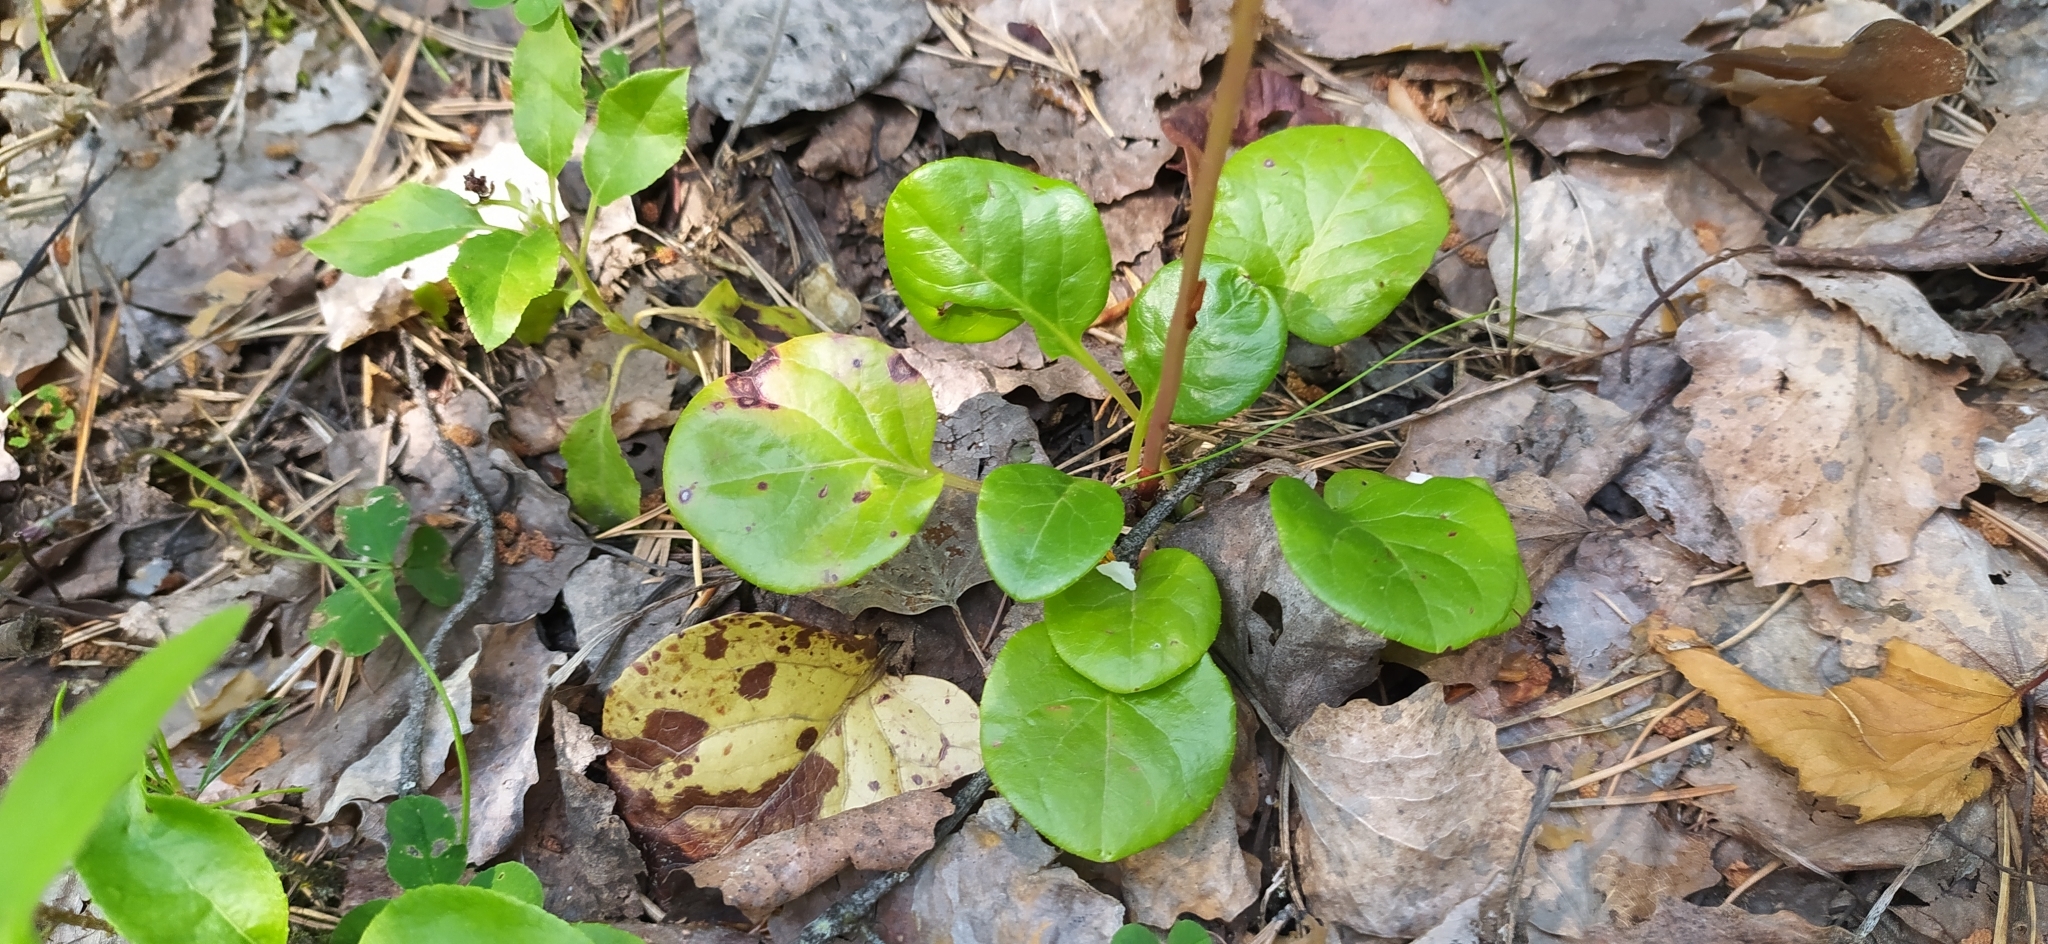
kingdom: Plantae
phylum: Tracheophyta
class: Magnoliopsida
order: Ericales
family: Ericaceae
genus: Pyrola
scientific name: Pyrola rotundifolia
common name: Round-leaved wintergreen
